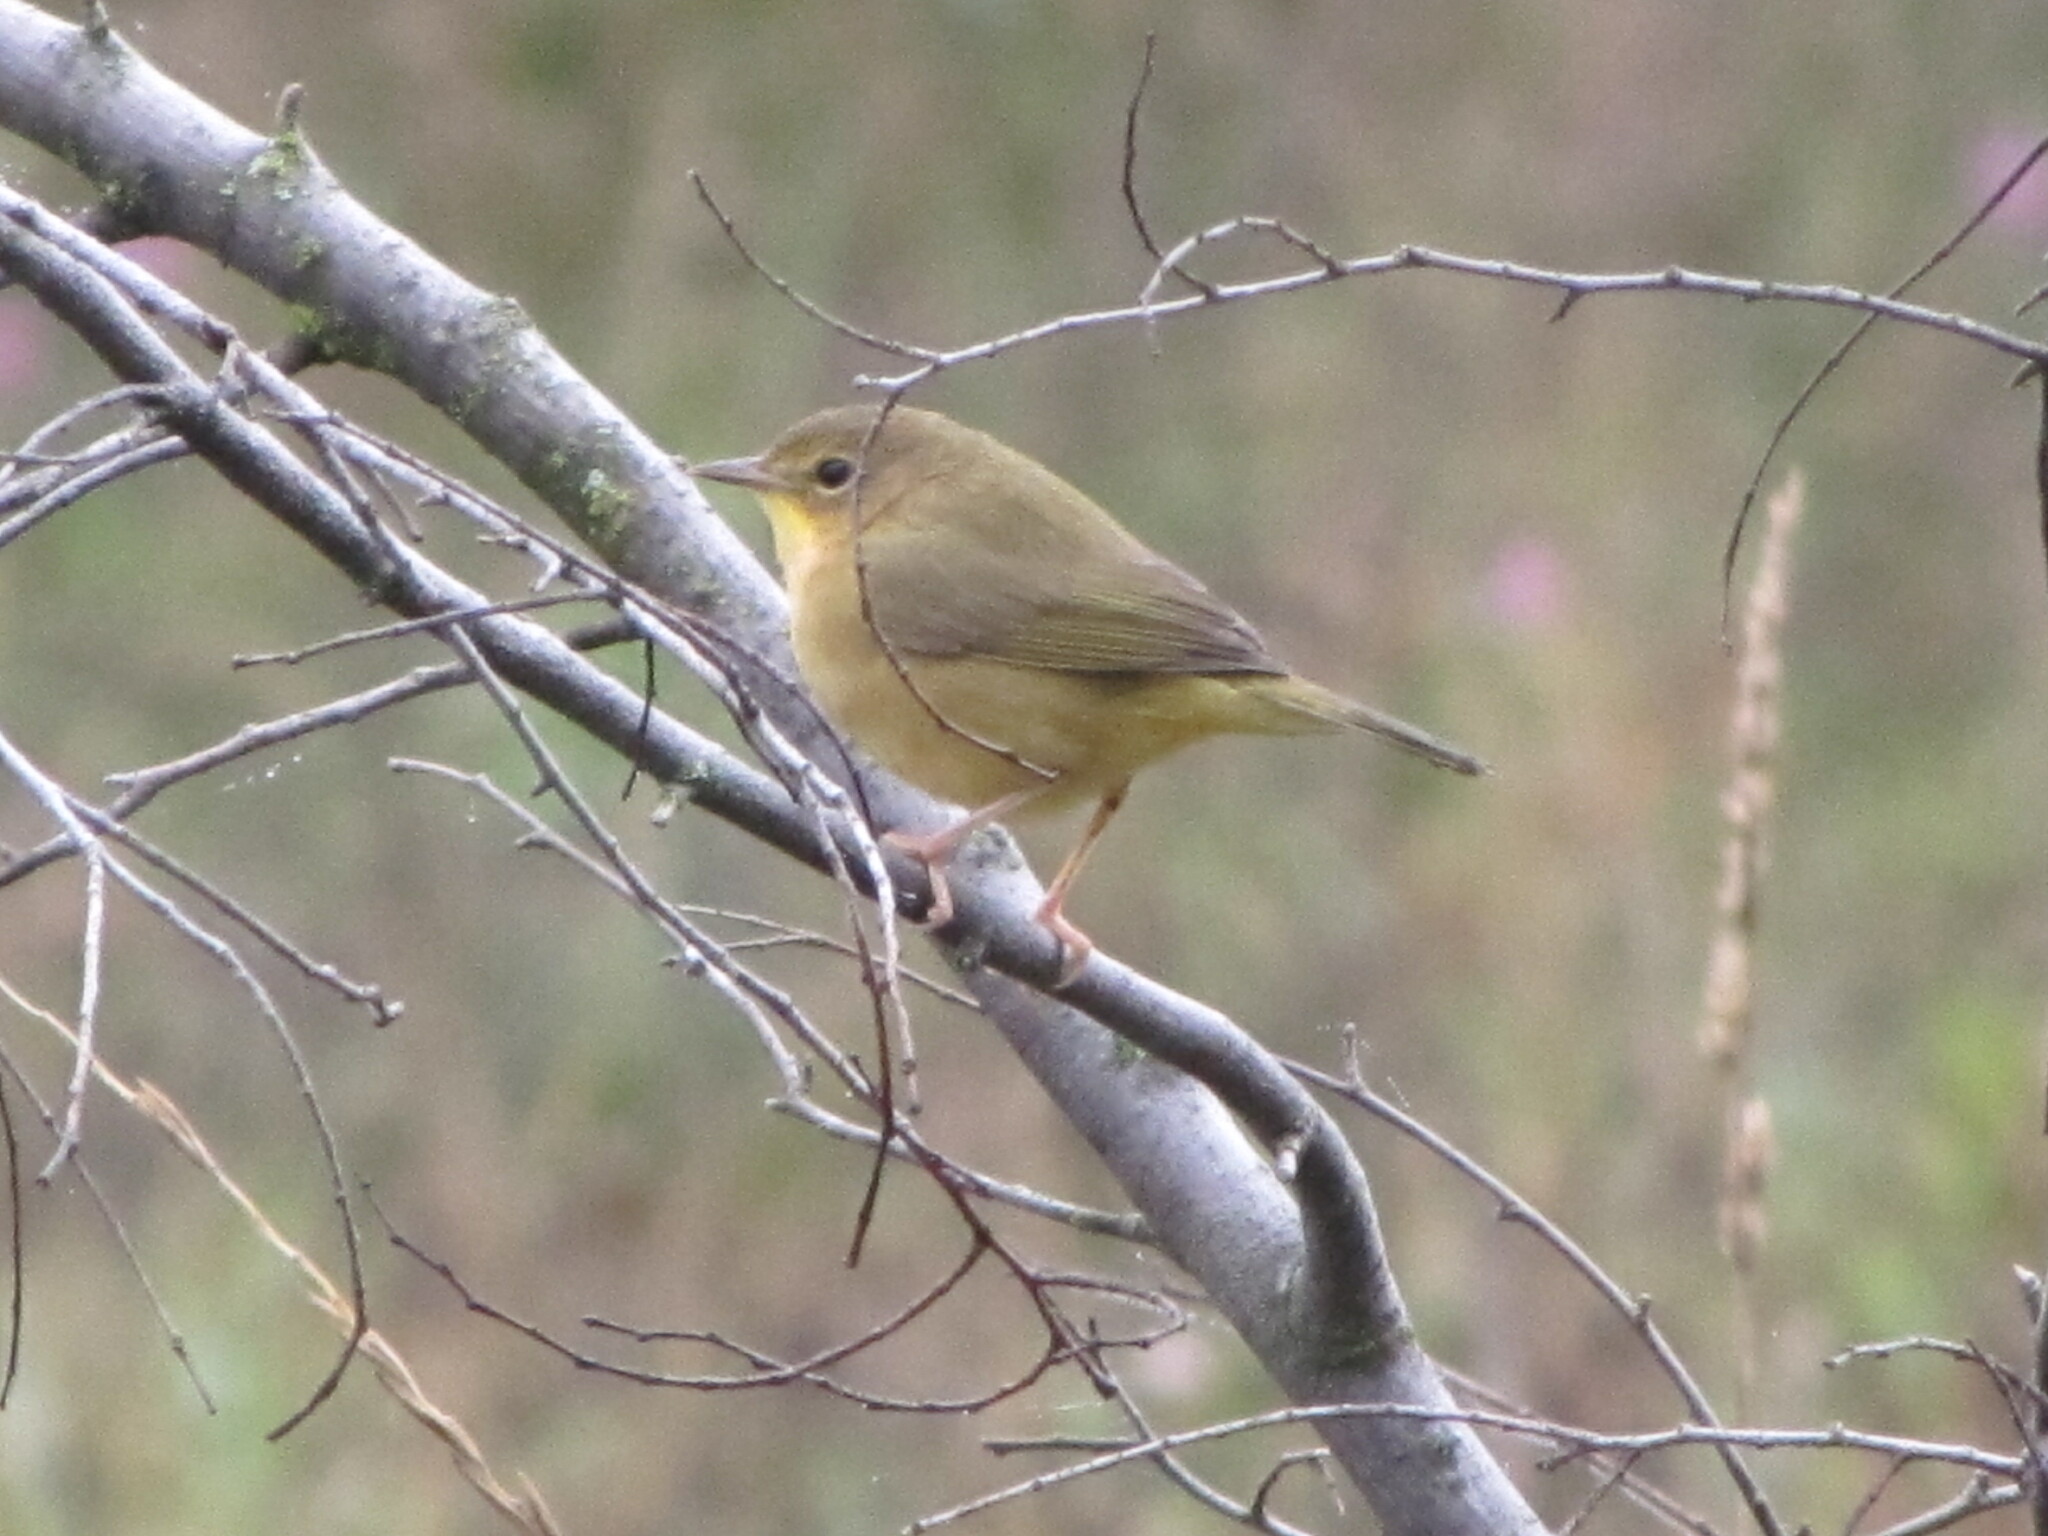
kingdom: Animalia
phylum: Chordata
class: Aves
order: Passeriformes
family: Parulidae
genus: Geothlypis
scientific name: Geothlypis trichas
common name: Common yellowthroat
